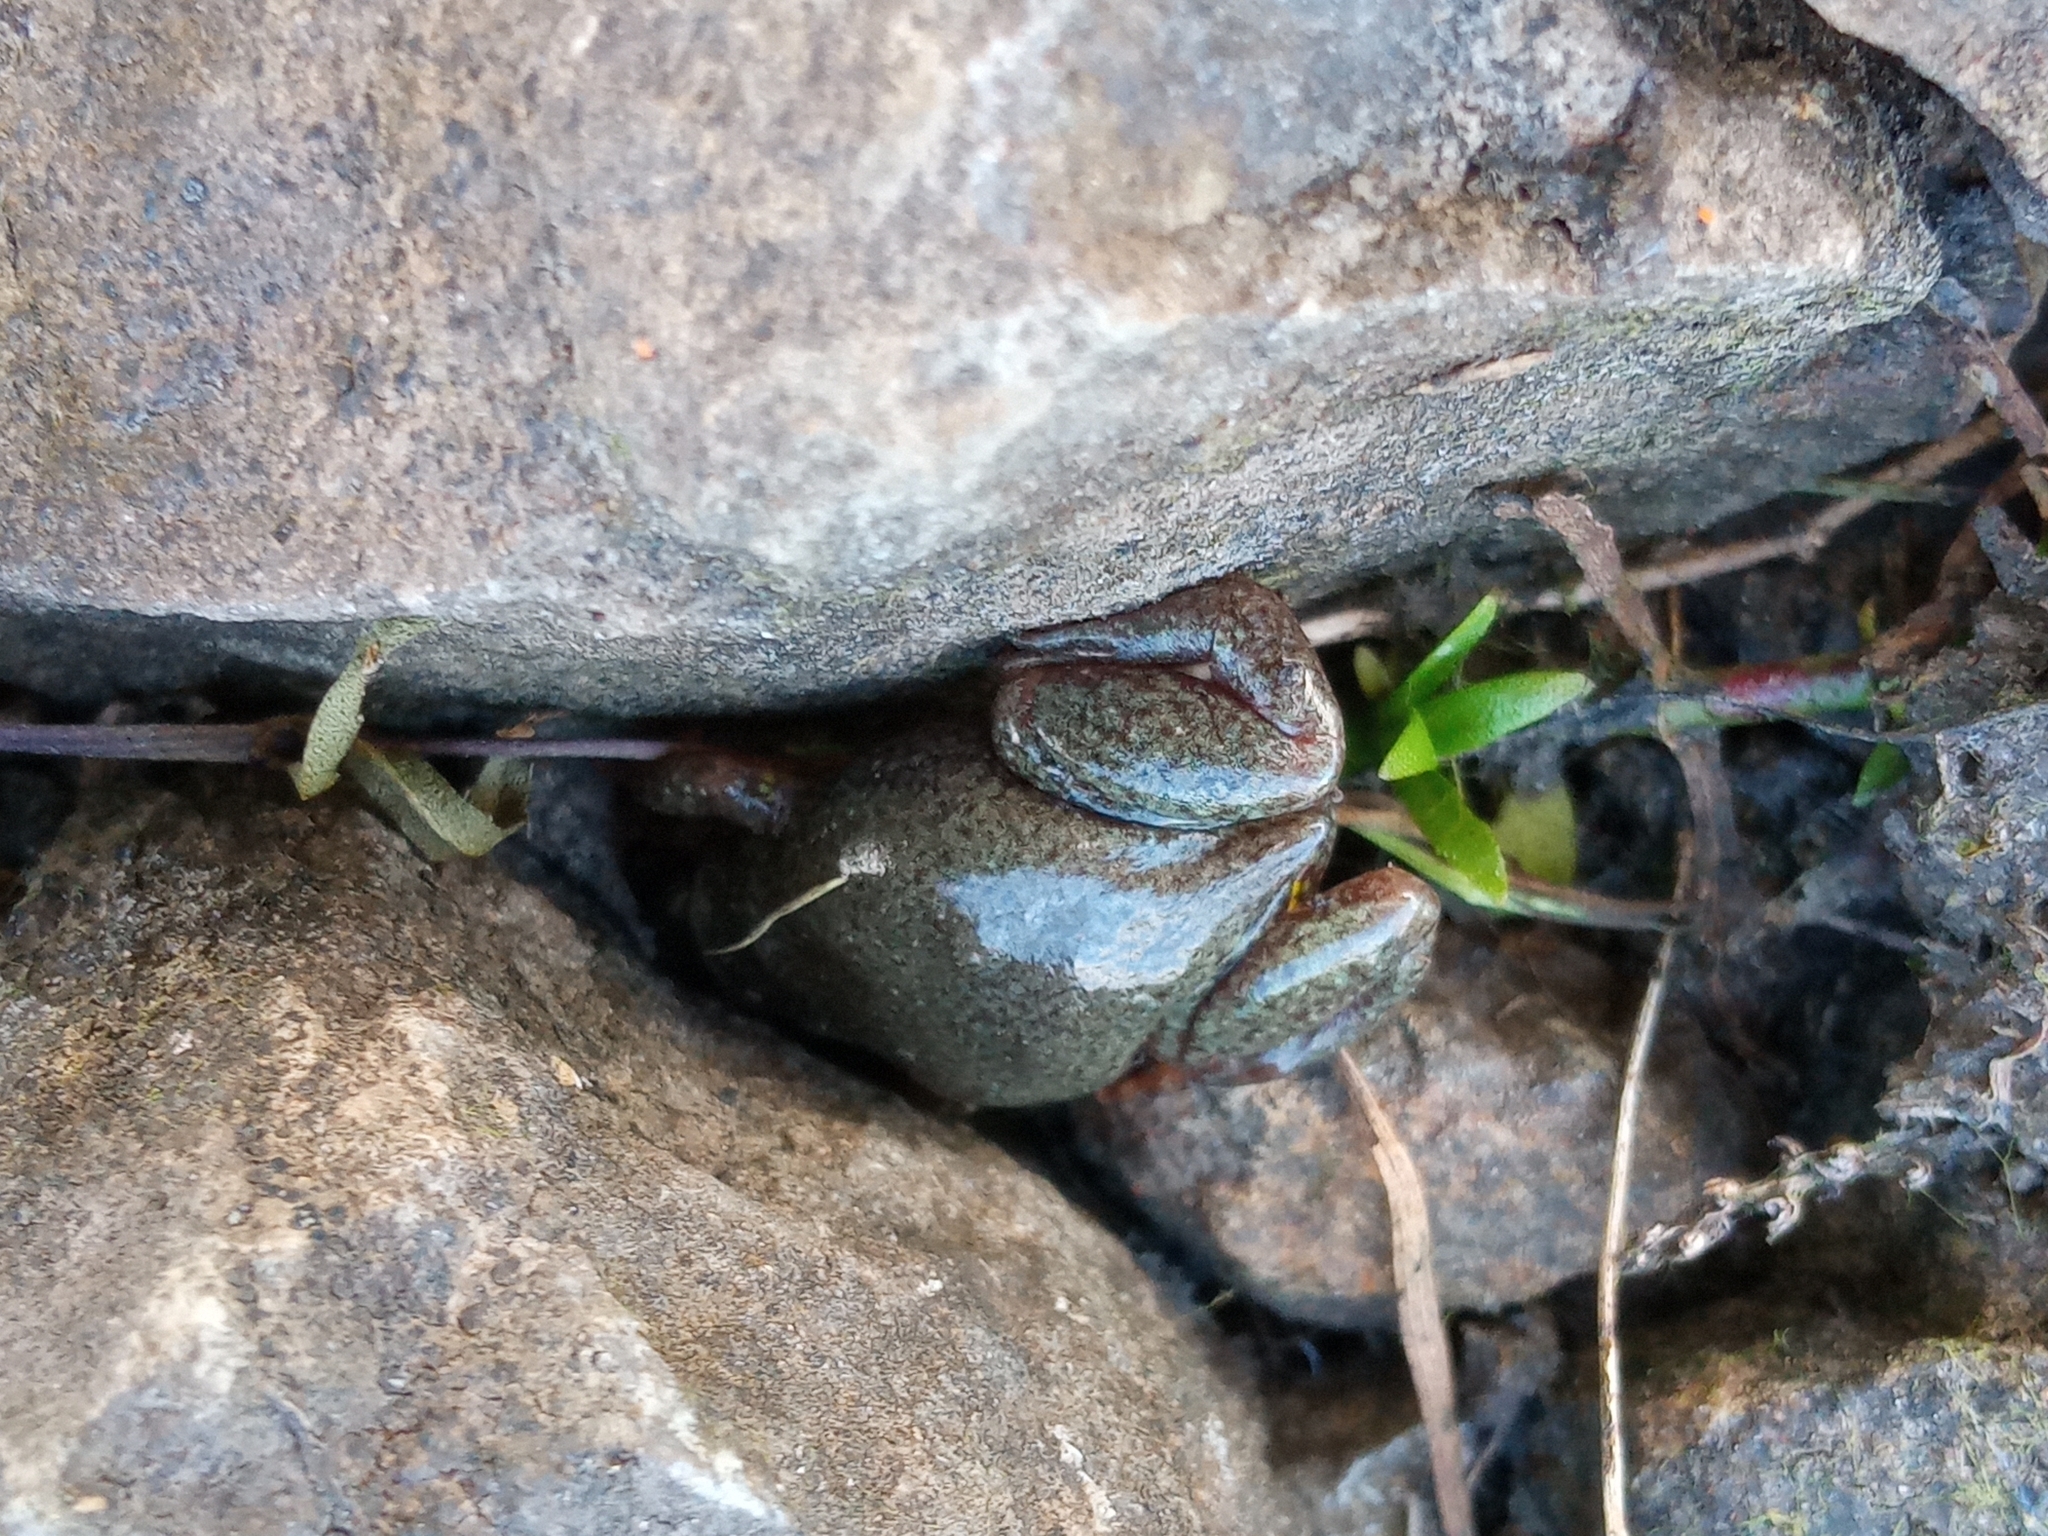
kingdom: Animalia
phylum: Chordata
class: Amphibia
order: Anura
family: Microhylidae
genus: Elachistocleis
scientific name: Elachistocleis bicolor
